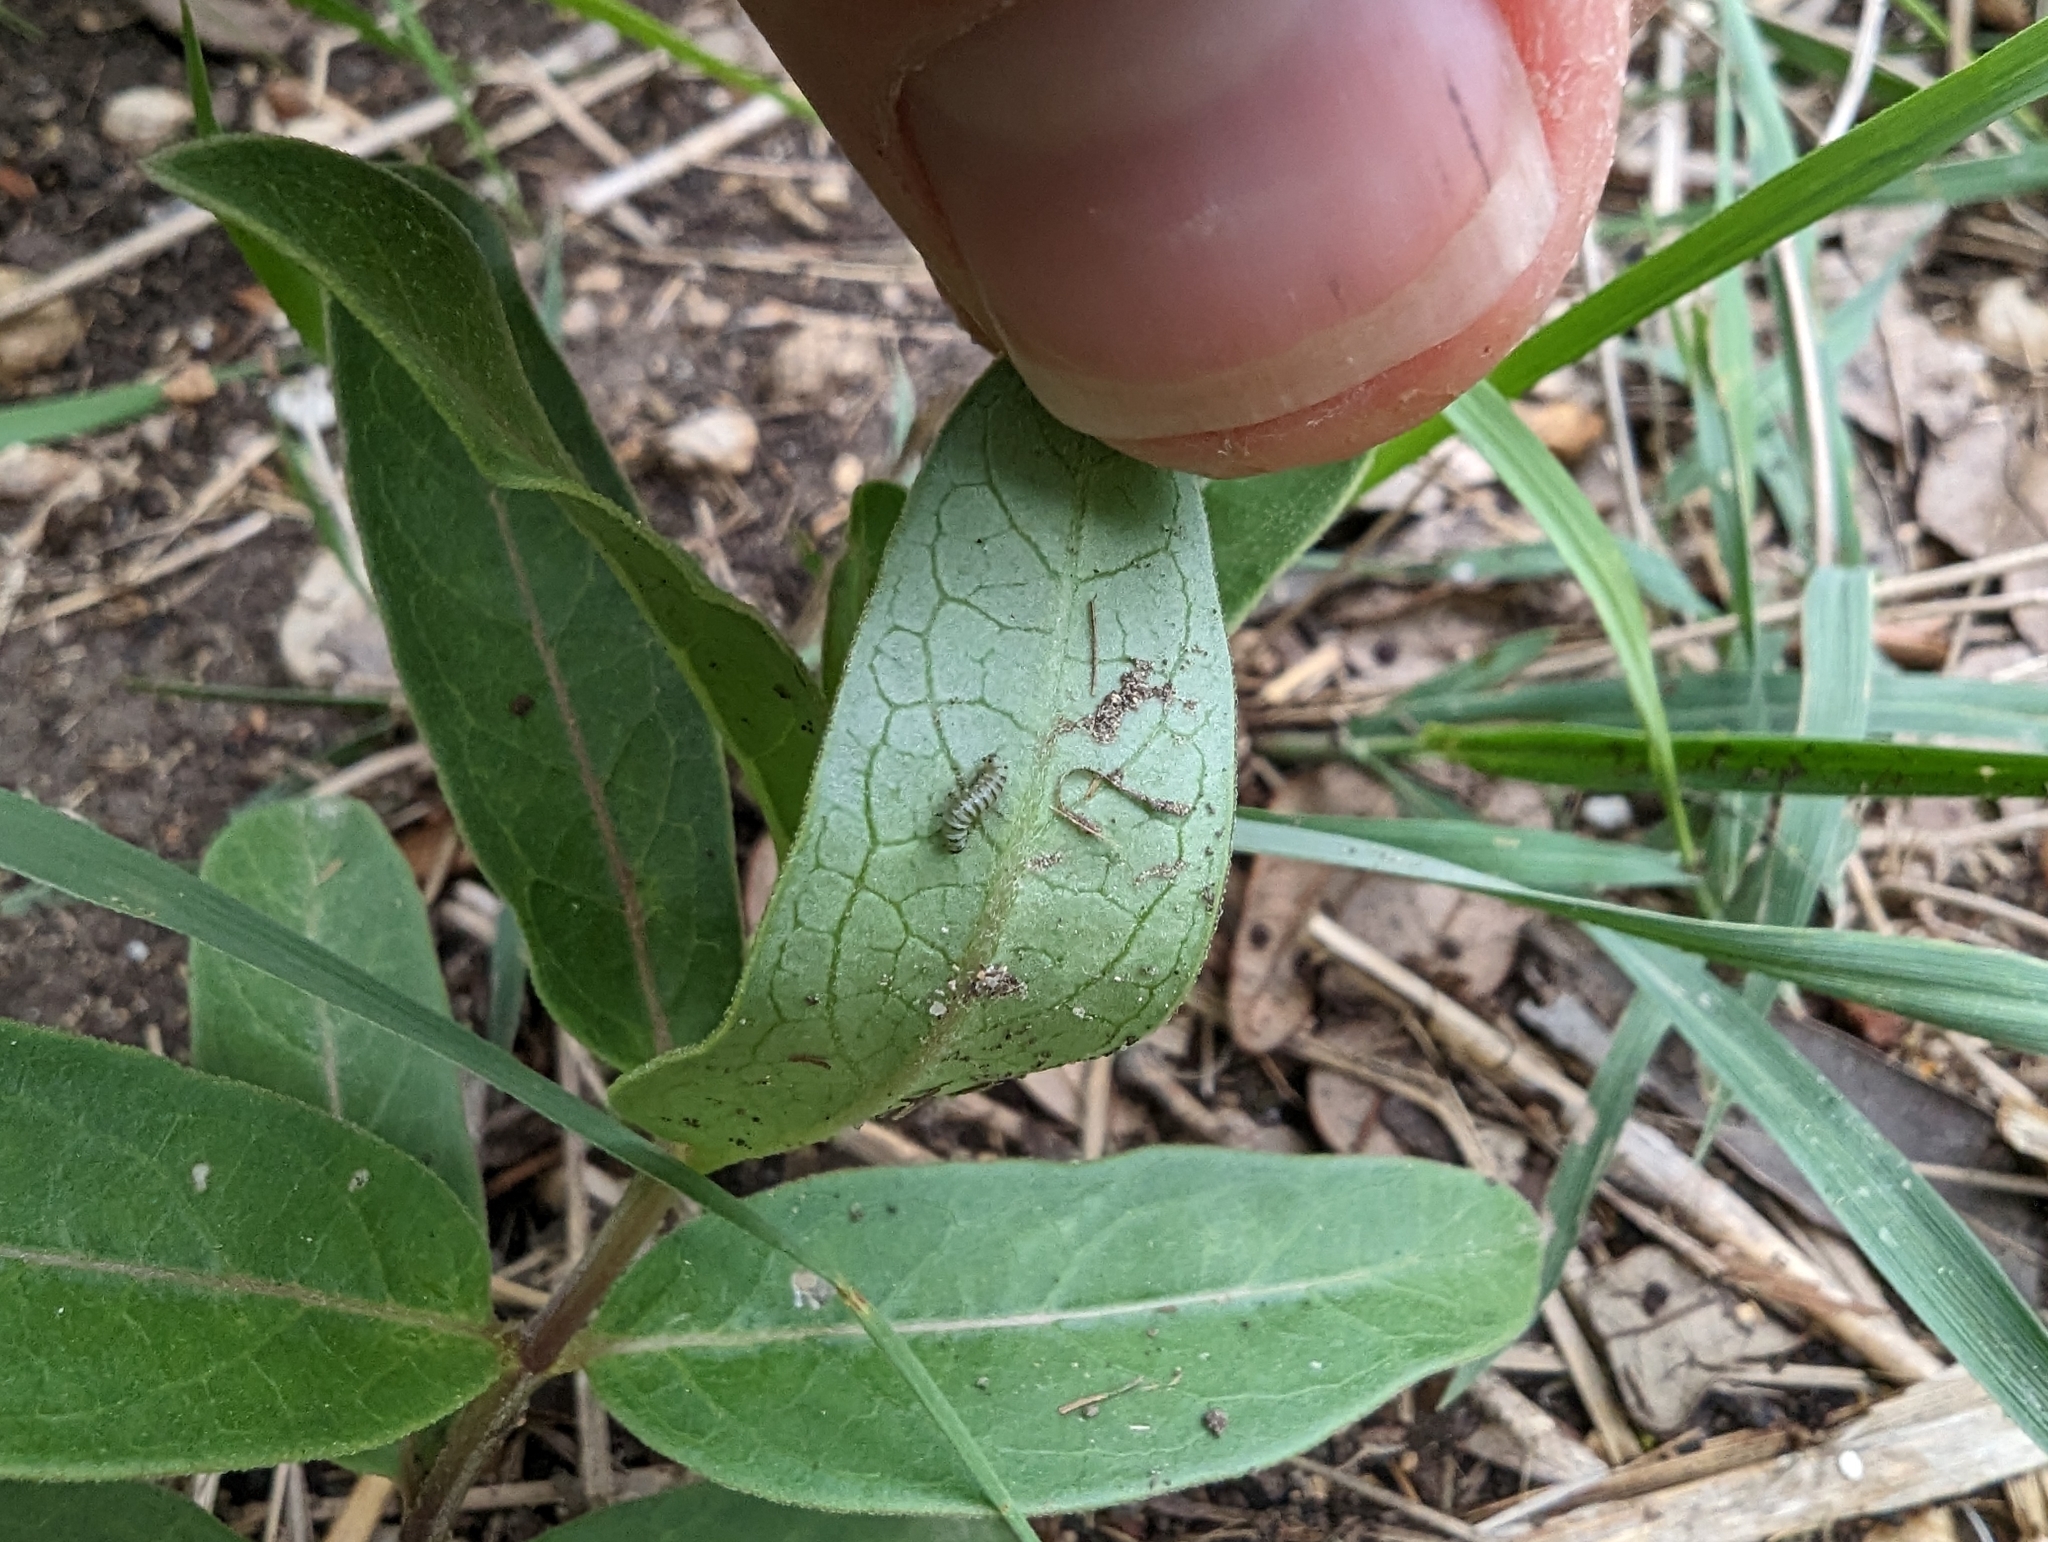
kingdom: Animalia
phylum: Arthropoda
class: Insecta
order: Lepidoptera
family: Nymphalidae
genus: Danaus
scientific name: Danaus plexippus
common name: Monarch
